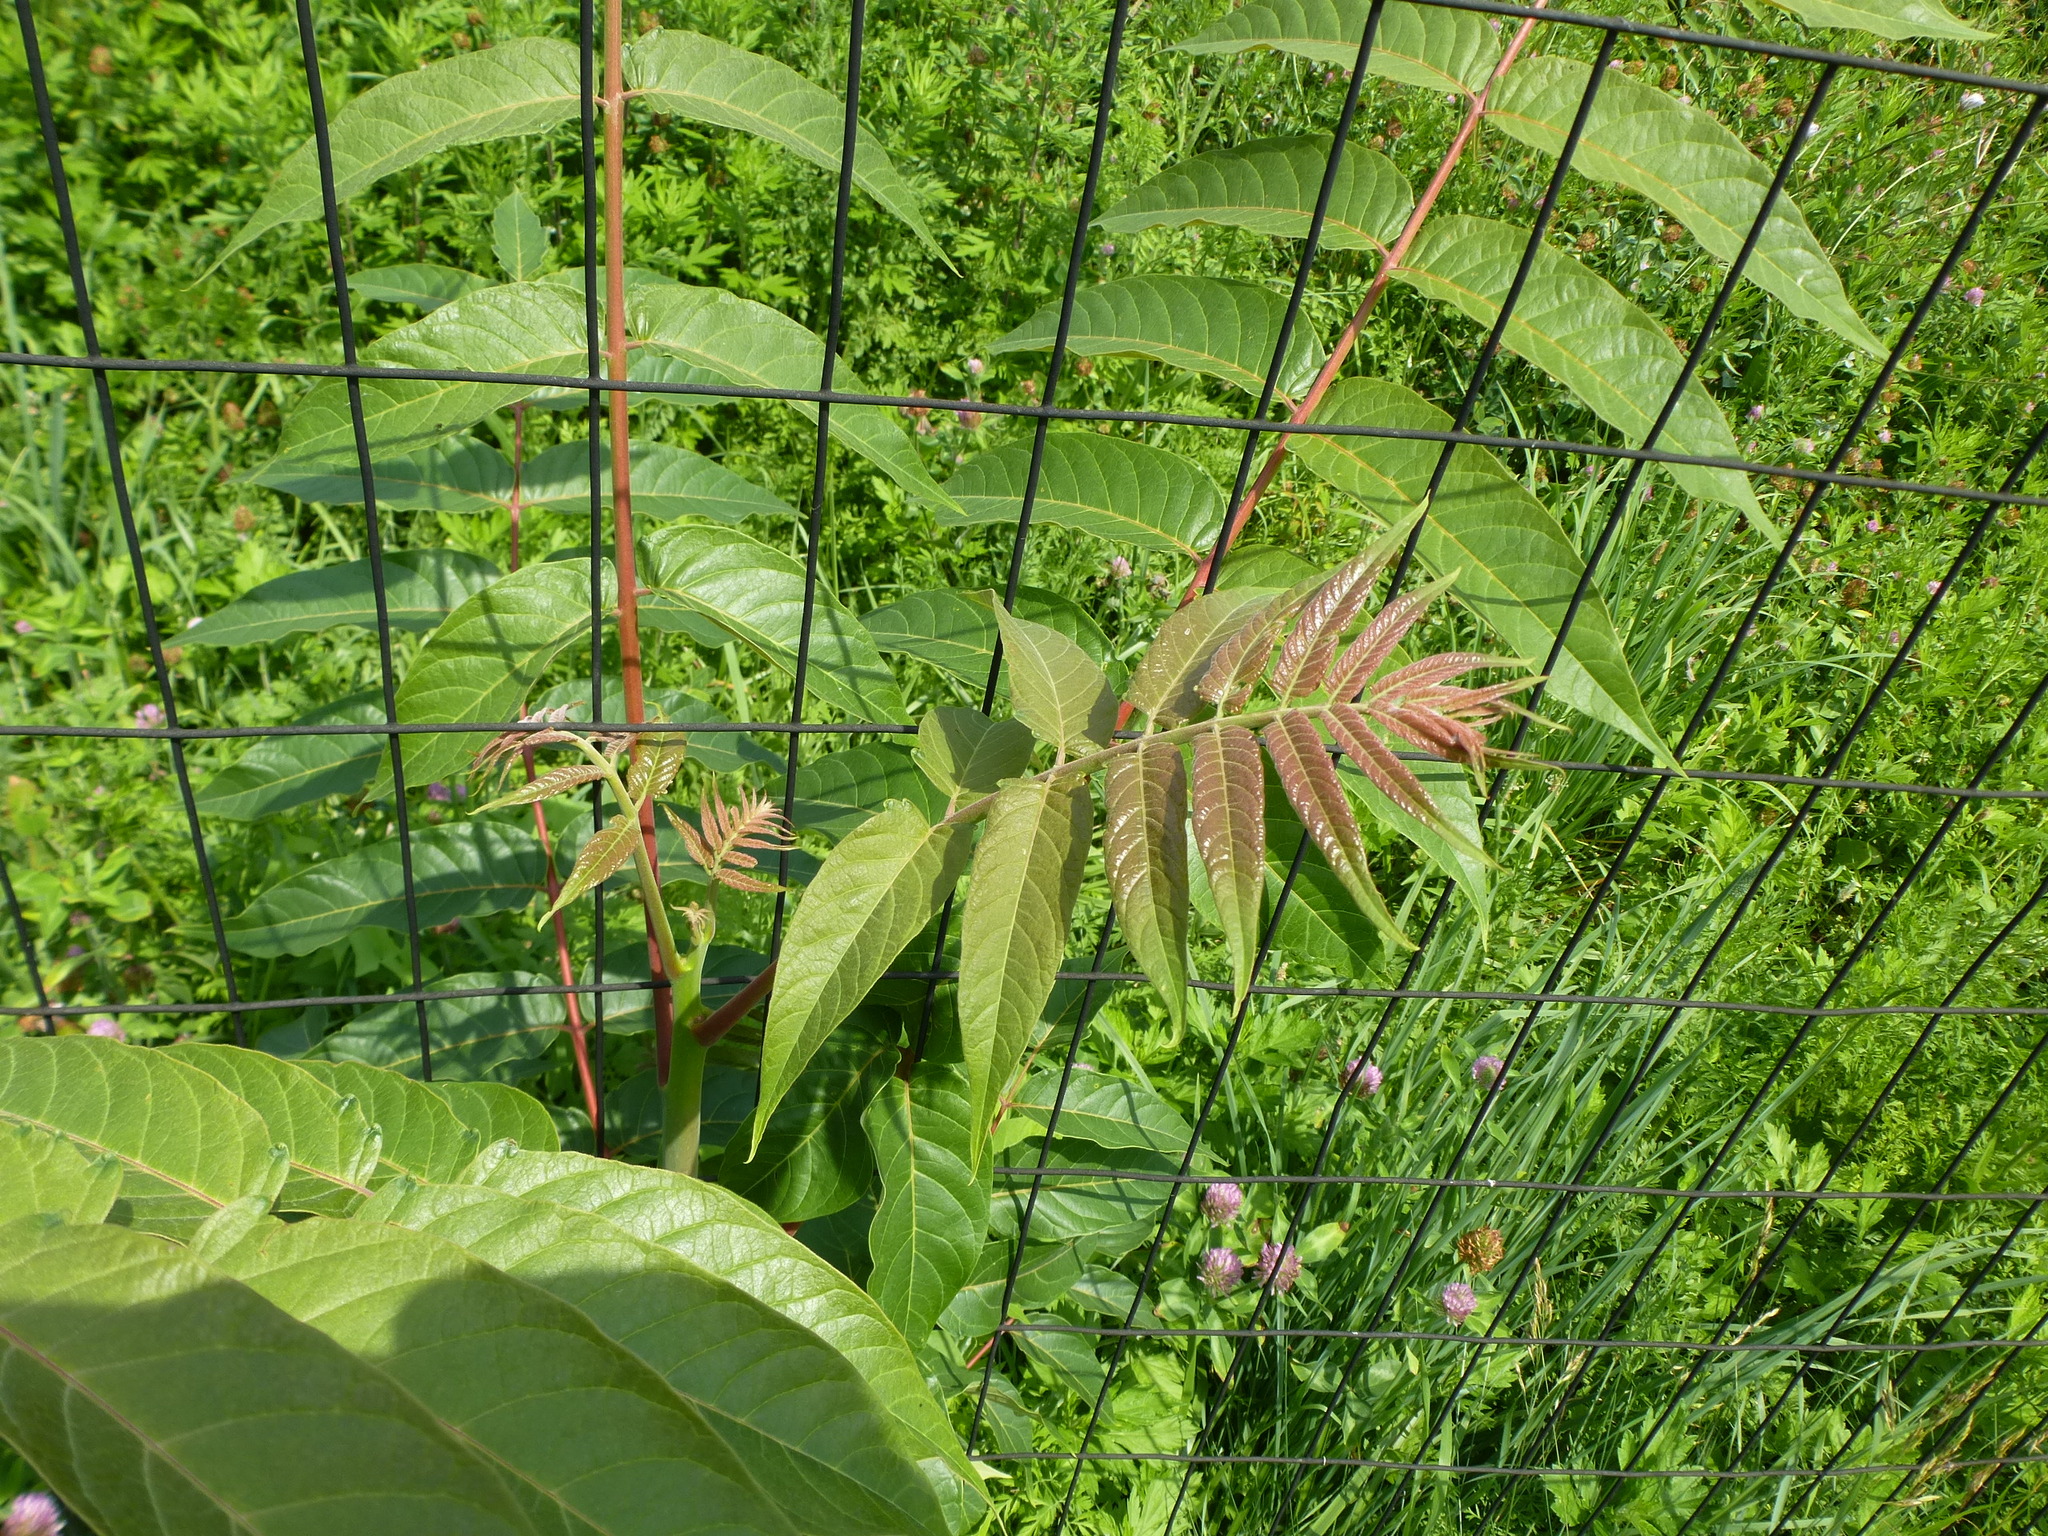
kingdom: Plantae
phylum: Tracheophyta
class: Magnoliopsida
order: Sapindales
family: Simaroubaceae
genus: Ailanthus
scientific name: Ailanthus altissima
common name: Tree-of-heaven
